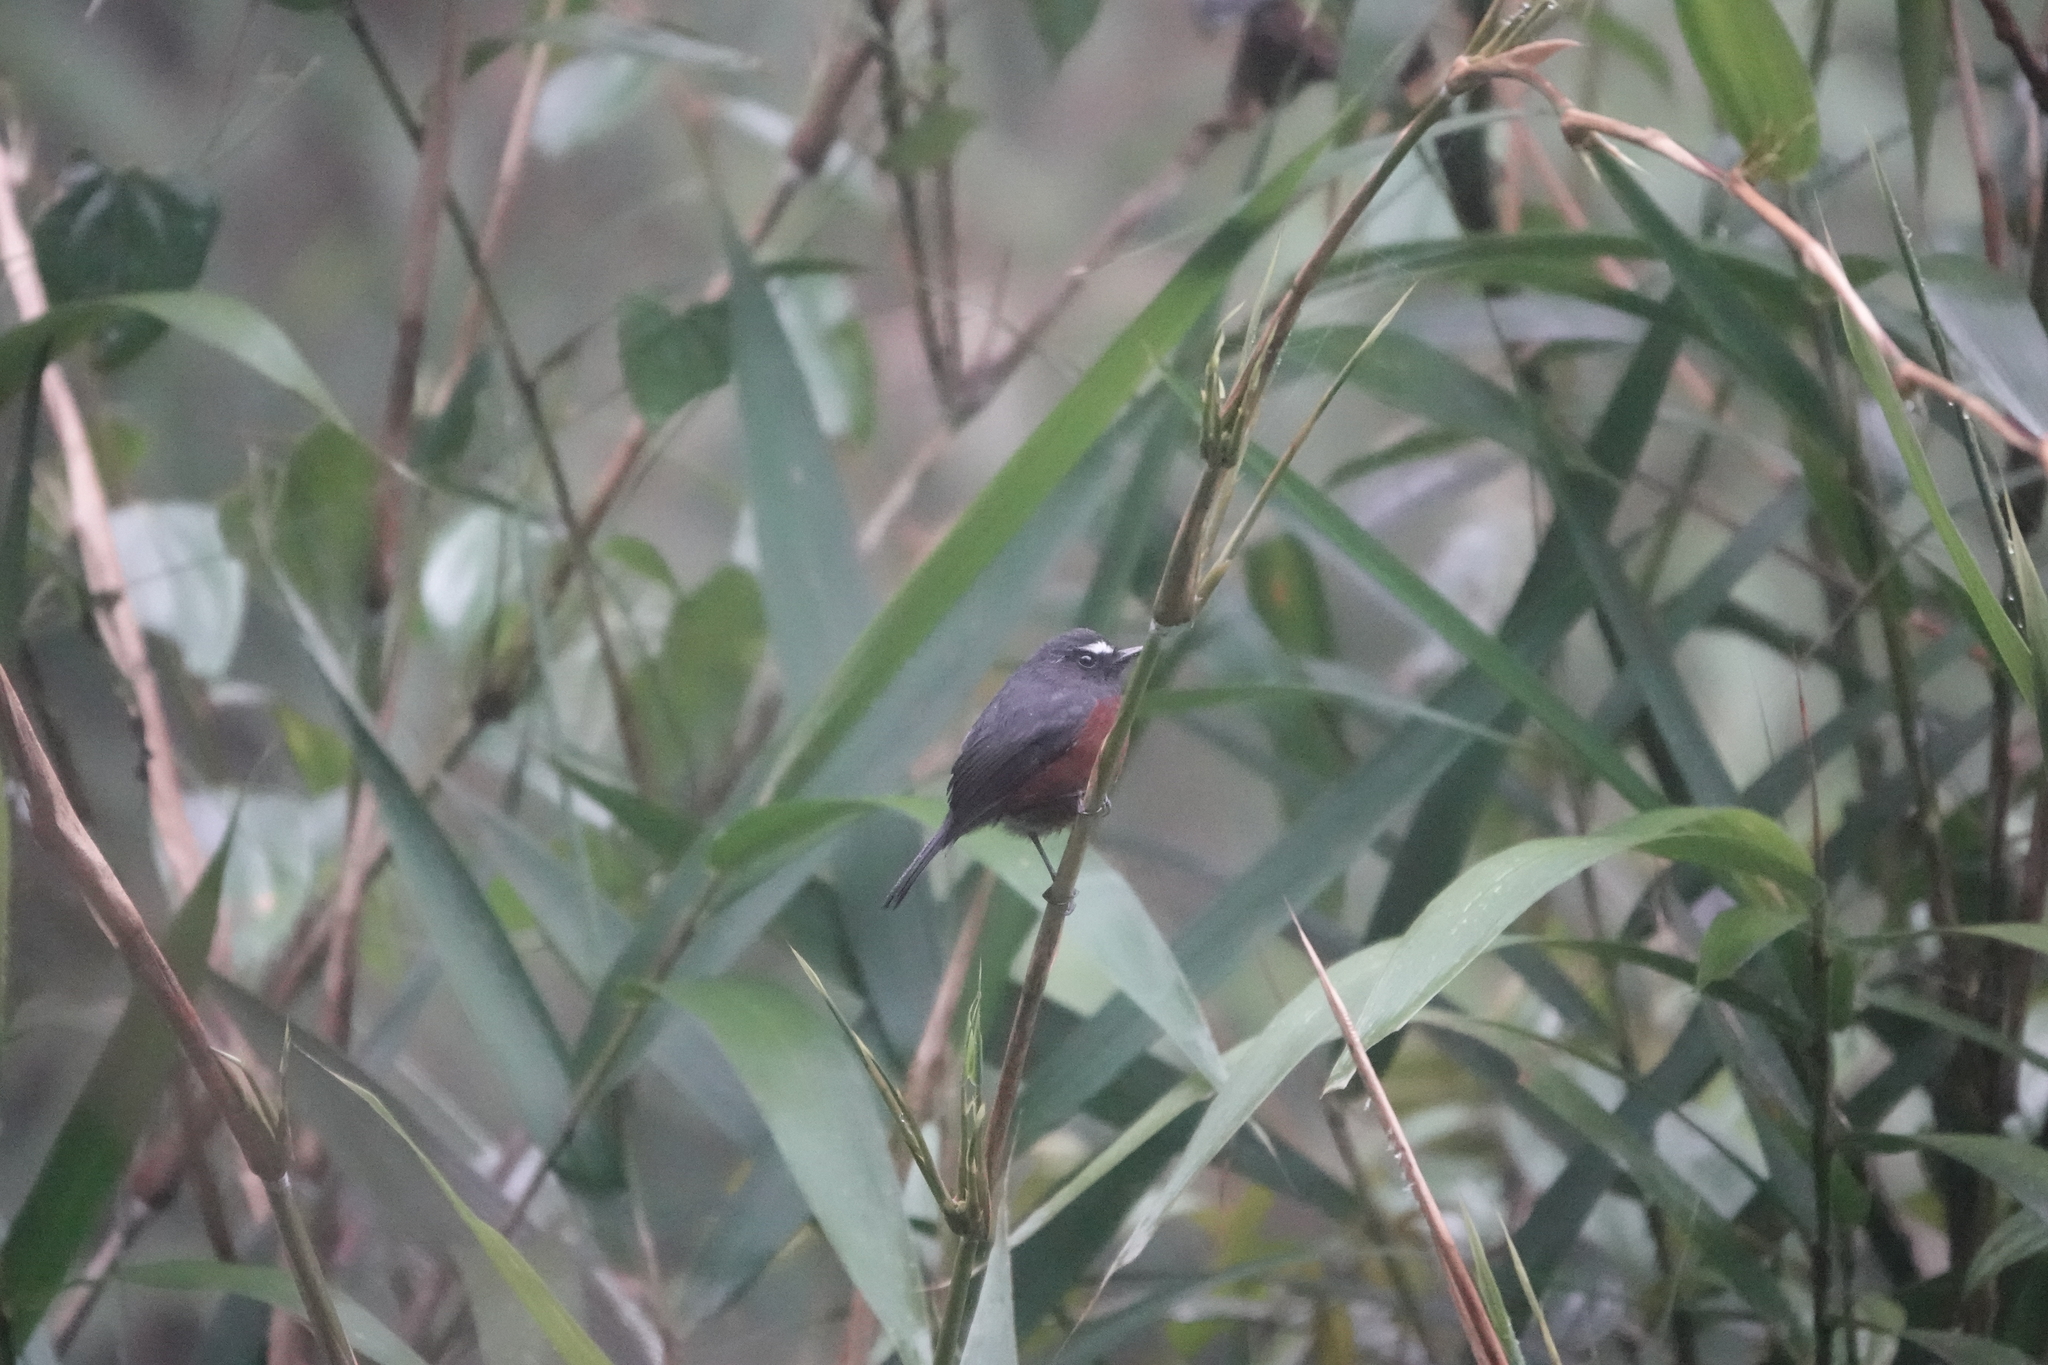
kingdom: Animalia
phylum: Chordata
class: Aves
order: Passeriformes
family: Tyrannidae
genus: Ochthoeca
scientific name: Ochthoeca cinnamomeiventris
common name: Slaty-backed chat-tyrant
